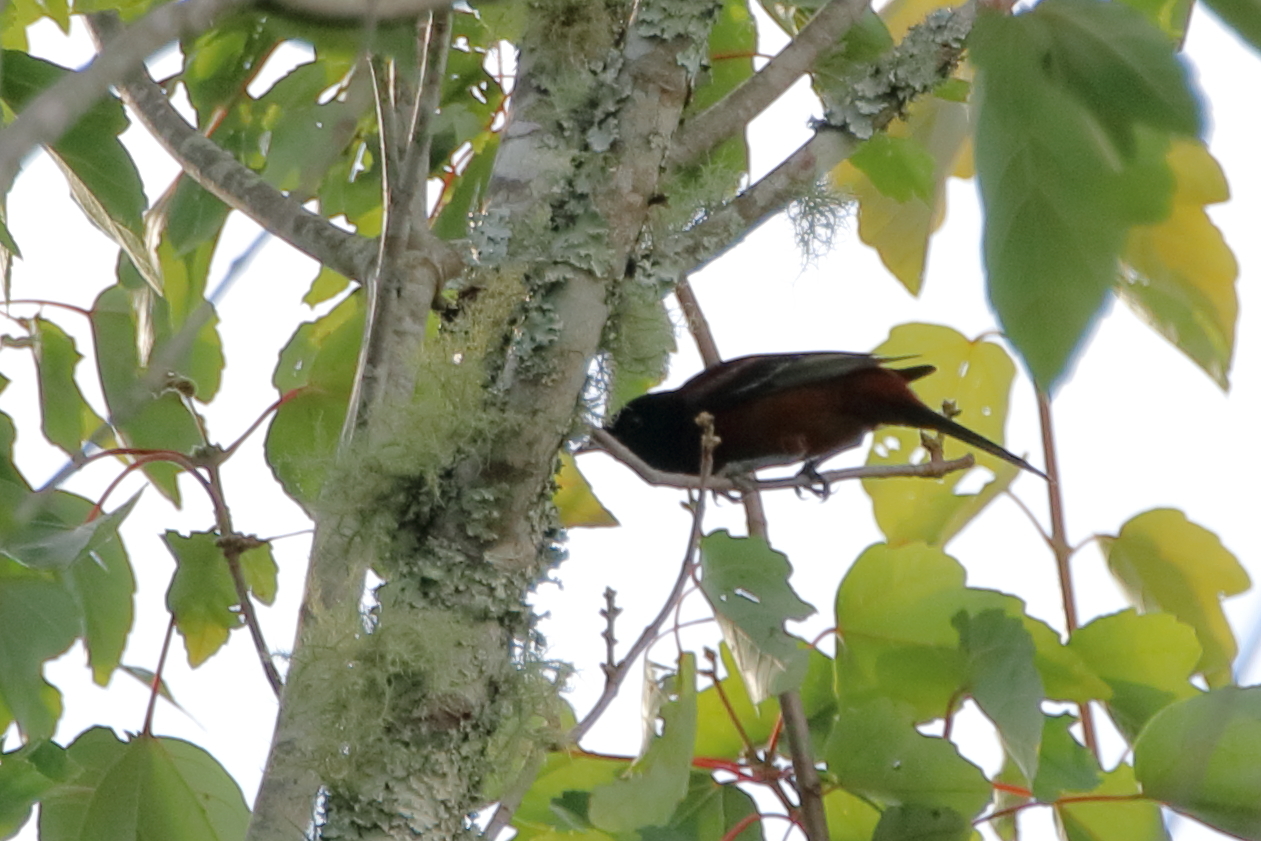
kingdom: Animalia
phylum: Chordata
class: Aves
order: Passeriformes
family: Icteridae
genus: Icterus
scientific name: Icterus spurius
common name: Orchard oriole
